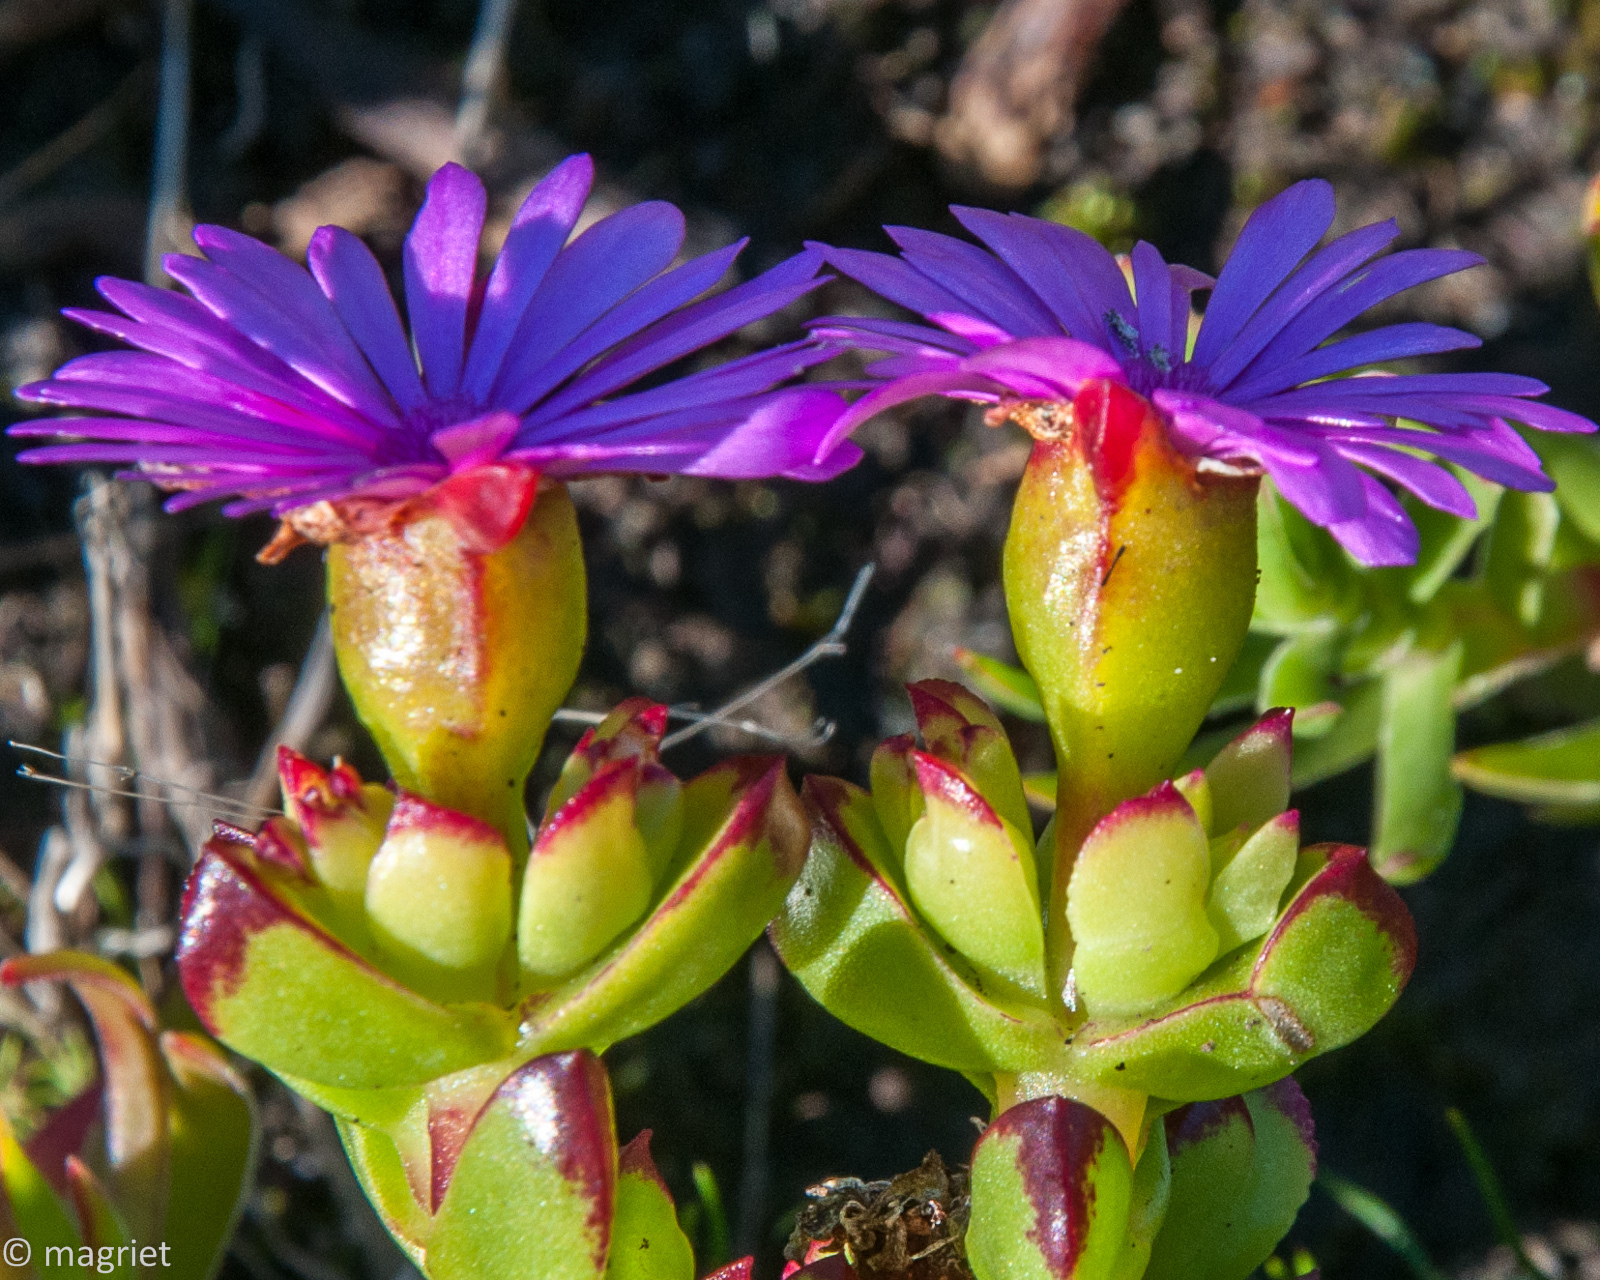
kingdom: Plantae
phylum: Tracheophyta
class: Magnoliopsida
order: Caryophyllales
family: Aizoaceae
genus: Erepsia
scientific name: Erepsia inclaudens
